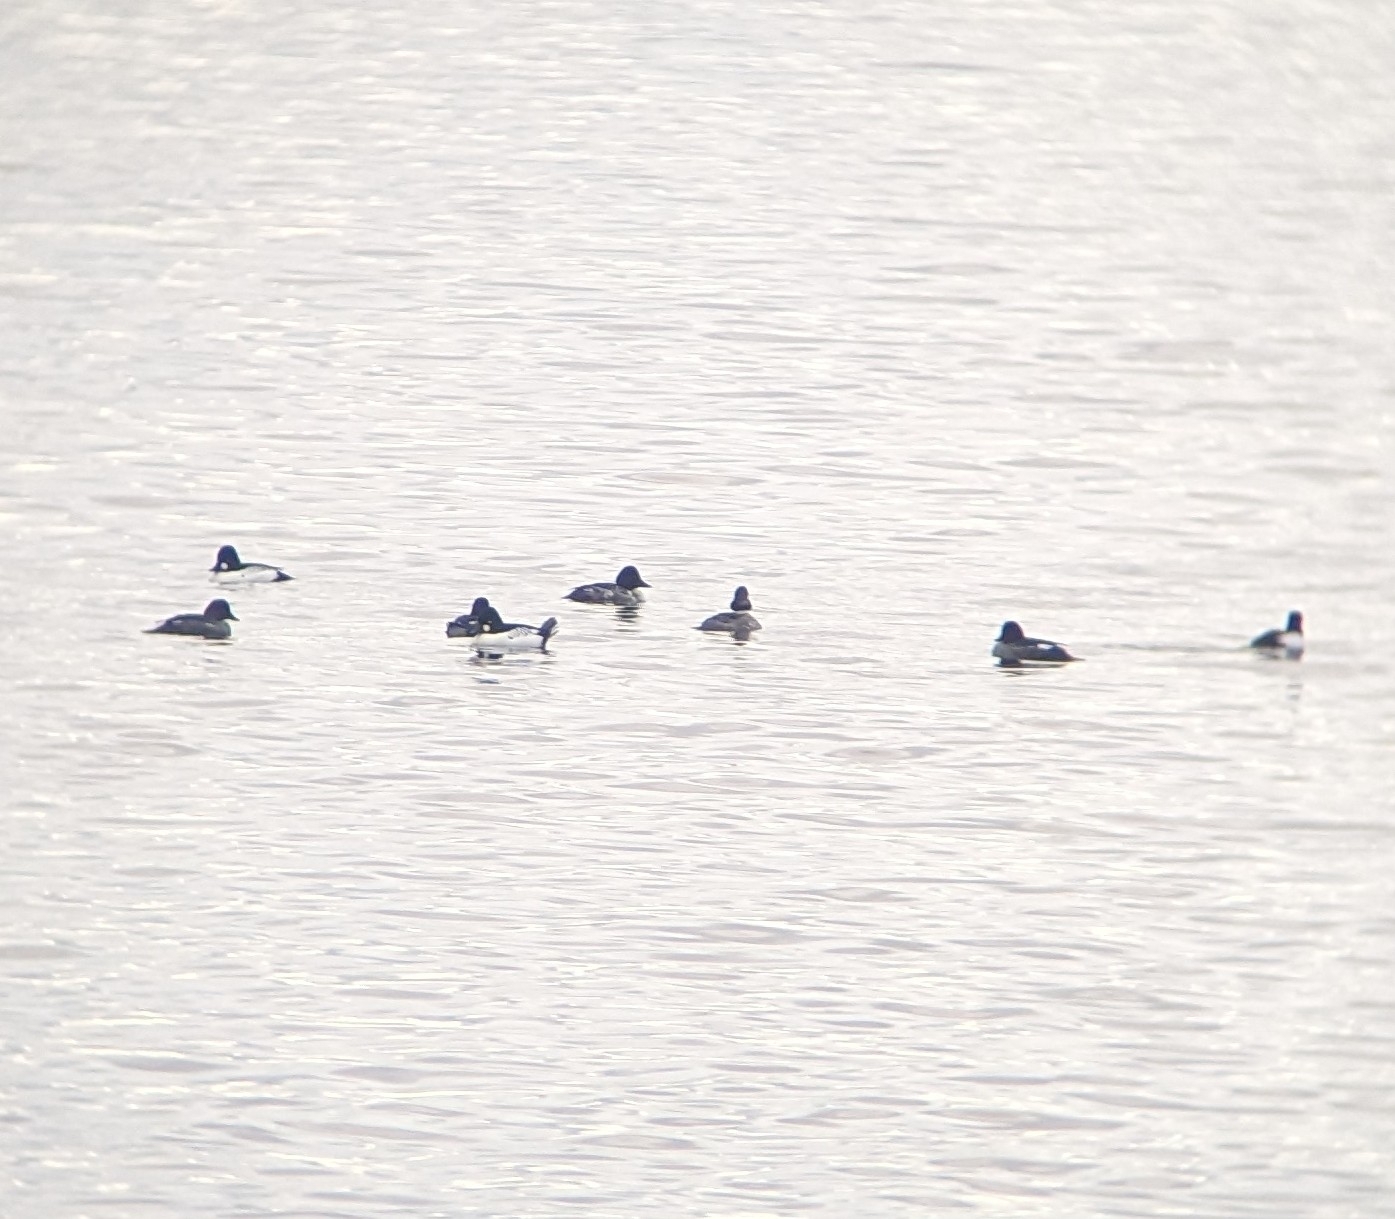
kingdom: Animalia
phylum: Chordata
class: Aves
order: Anseriformes
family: Anatidae
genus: Bucephala
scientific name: Bucephala clangula
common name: Common goldeneye
